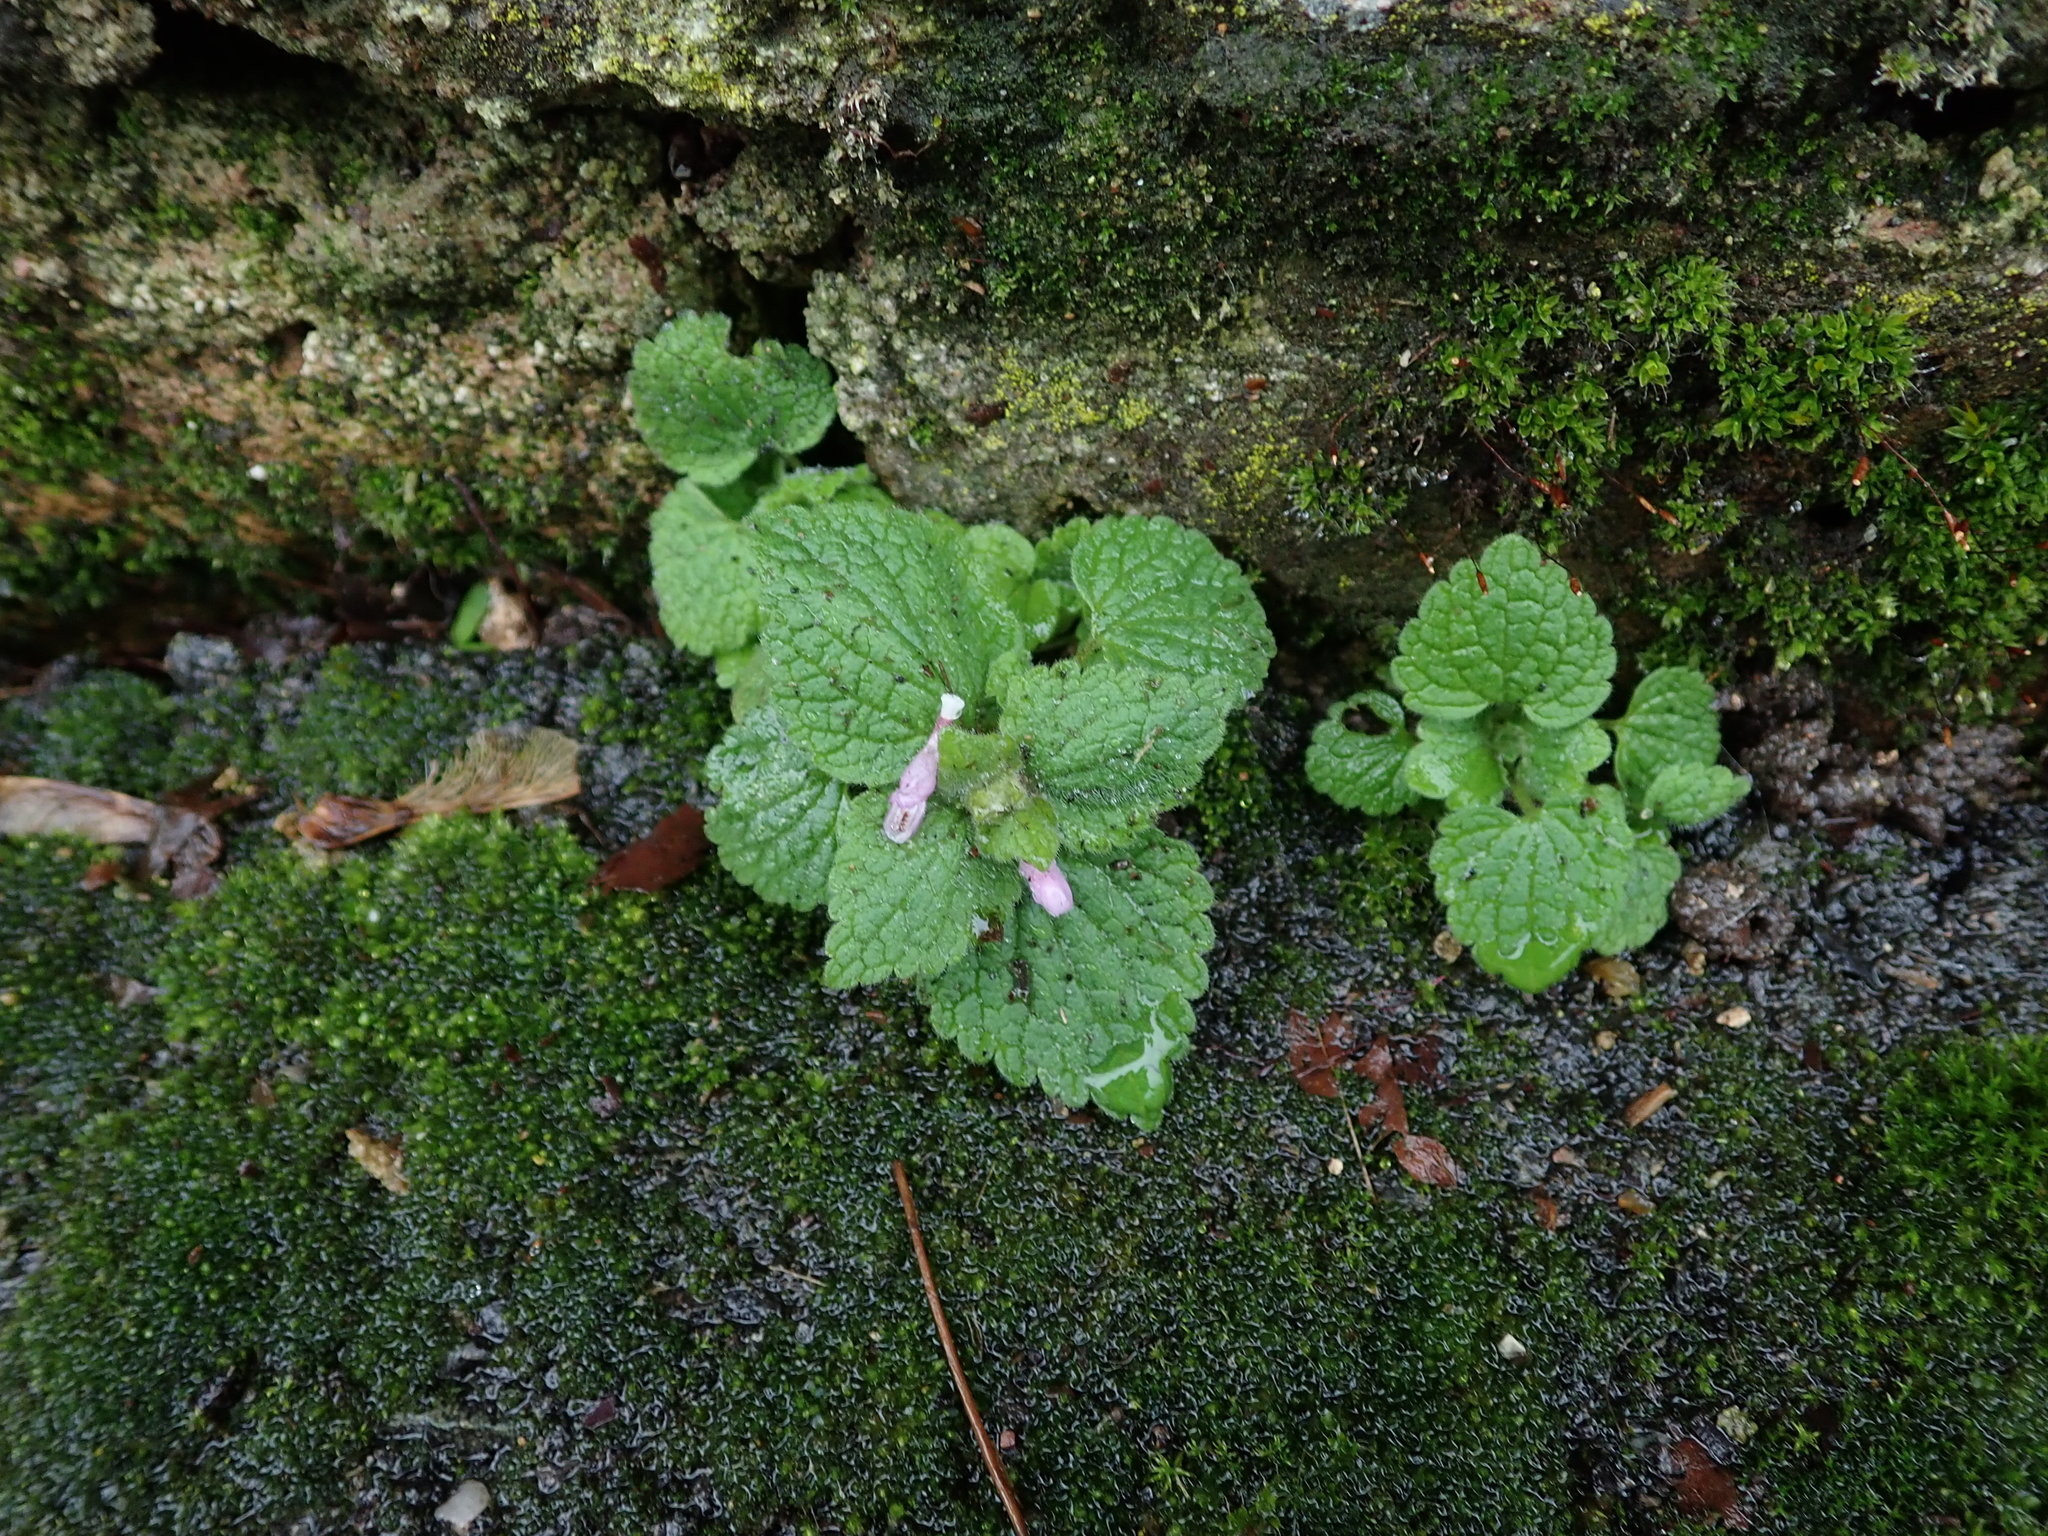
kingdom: Plantae
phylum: Tracheophyta
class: Magnoliopsida
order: Lamiales
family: Lamiaceae
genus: Lamium
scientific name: Lamium purpureum
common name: Red dead-nettle
